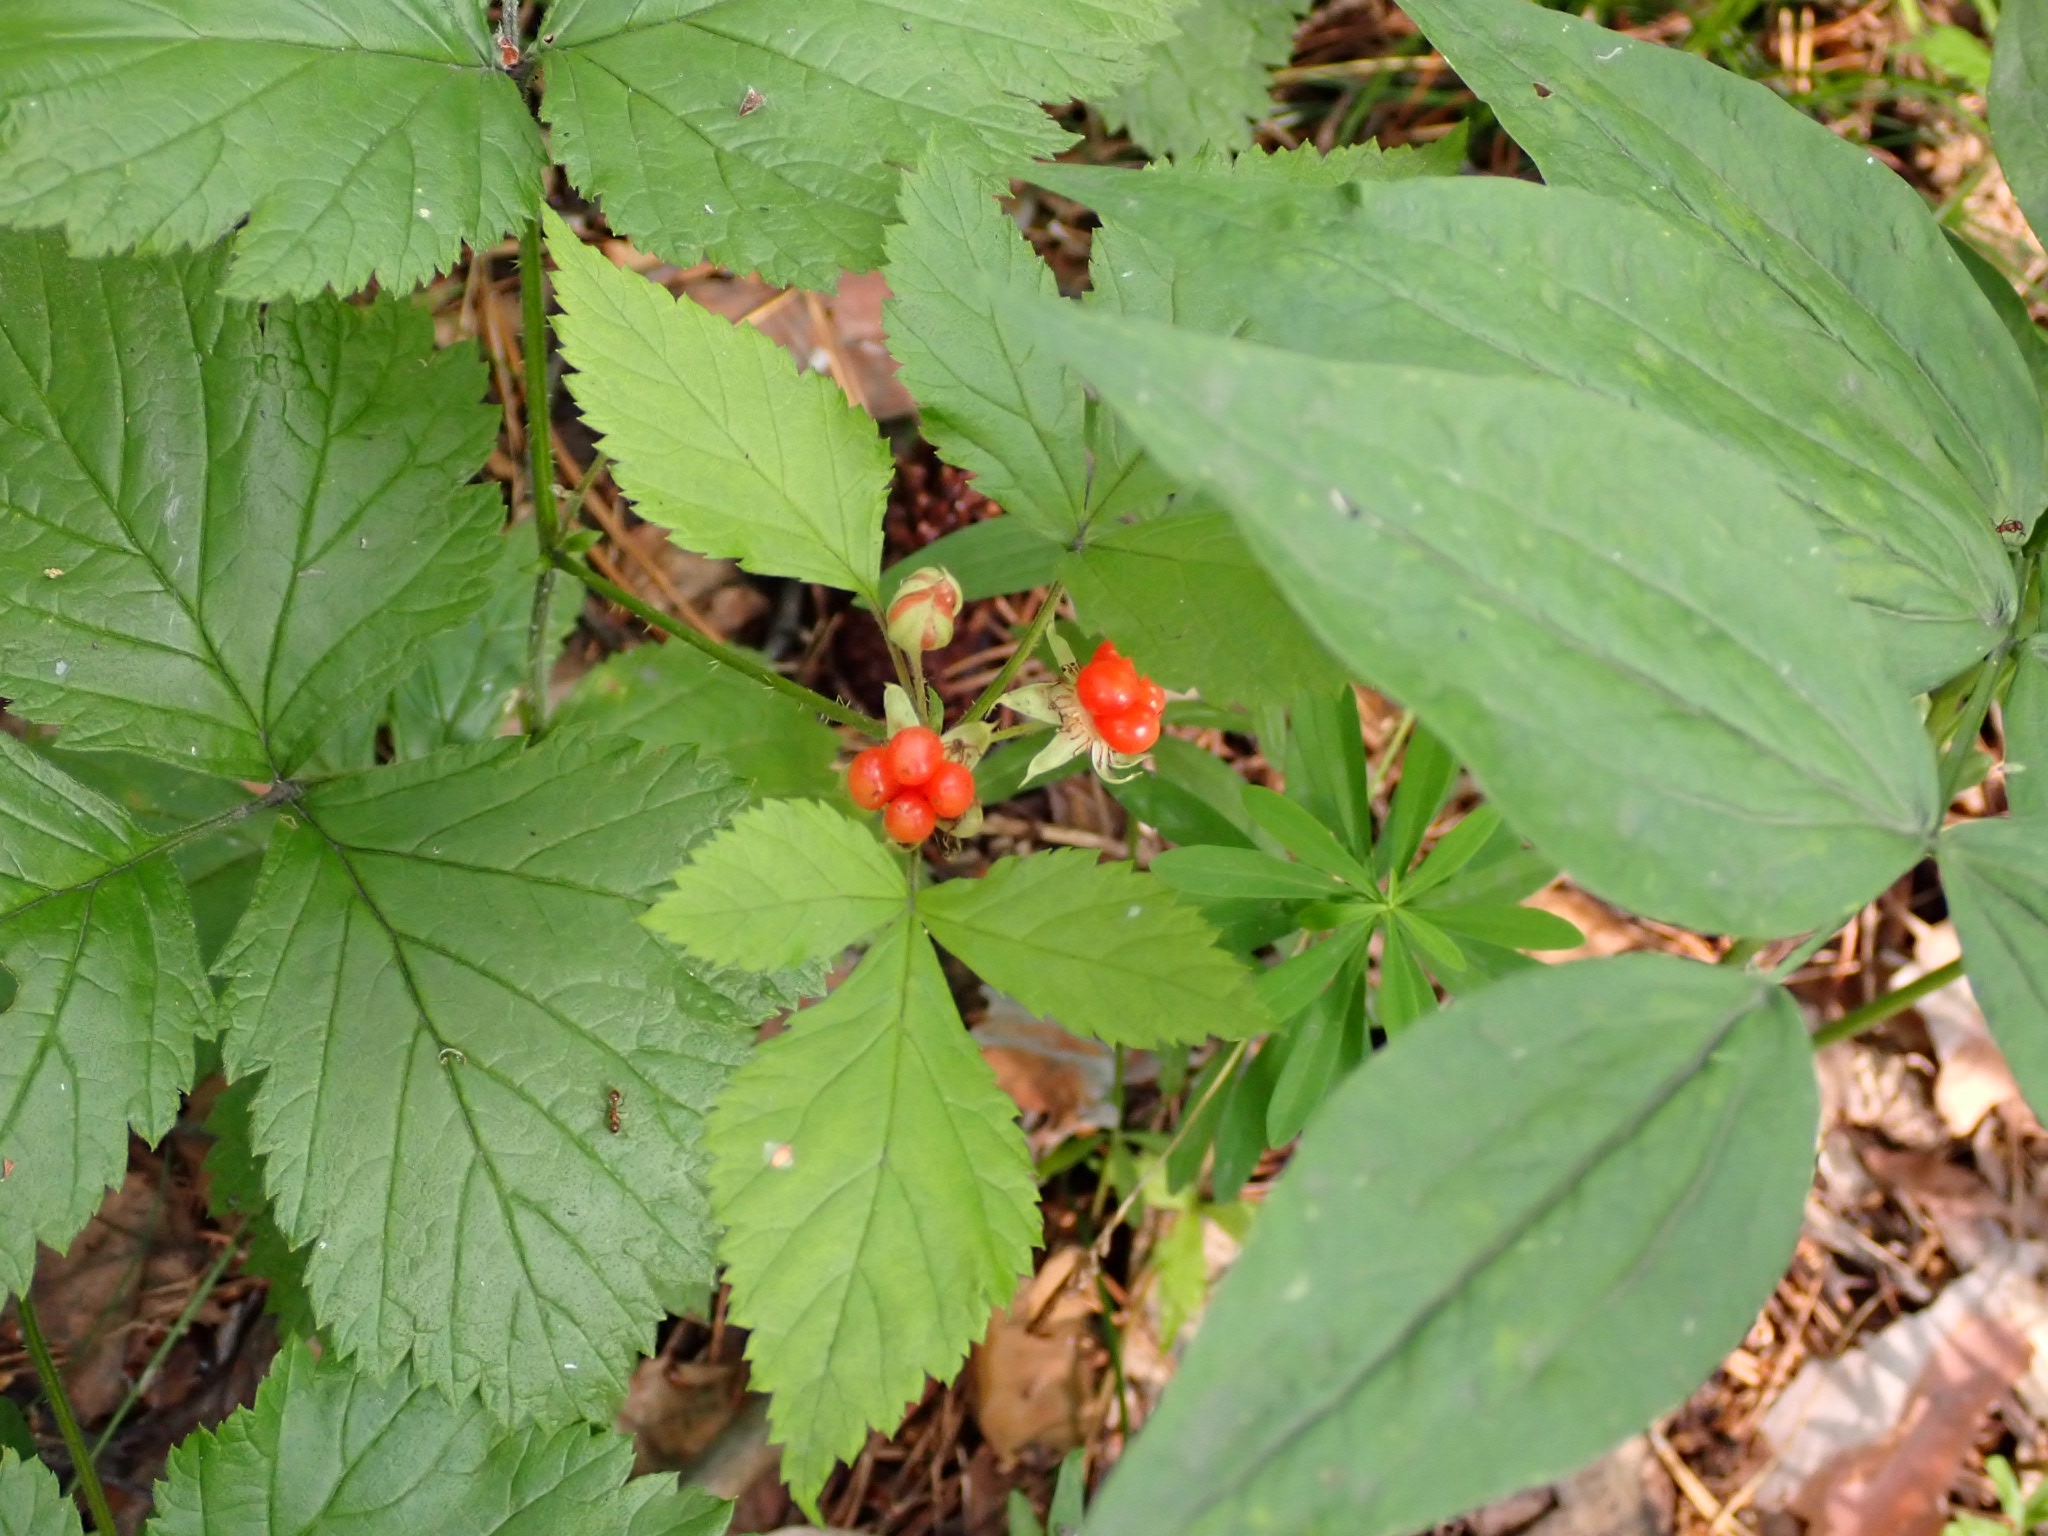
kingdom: Plantae
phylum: Tracheophyta
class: Magnoliopsida
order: Rosales
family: Rosaceae
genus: Rubus
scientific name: Rubus saxatilis
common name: Stone bramble
